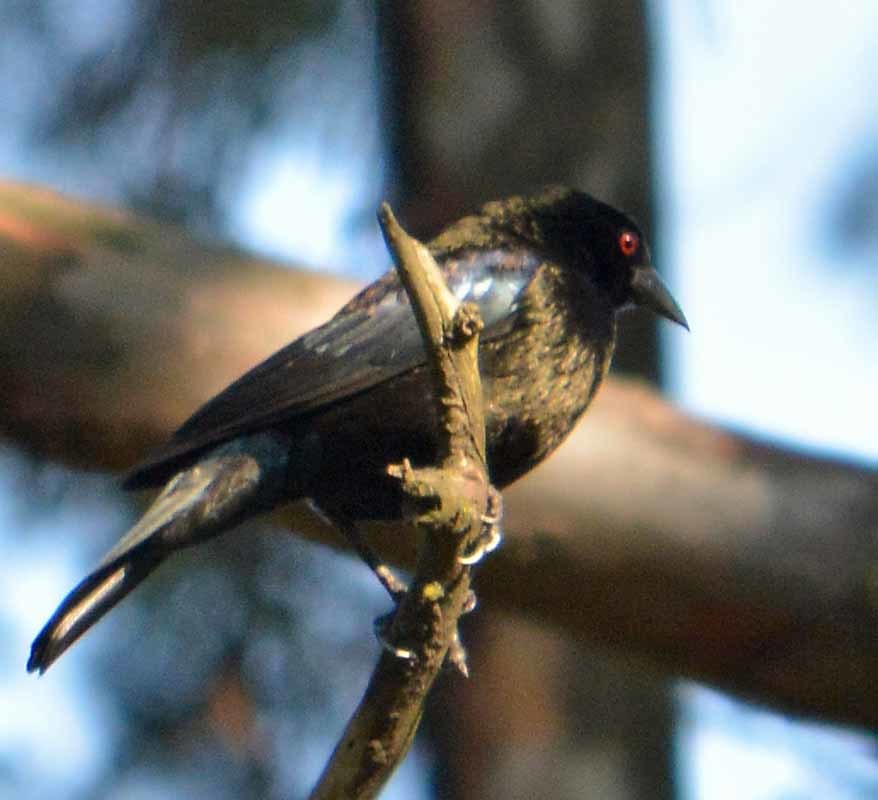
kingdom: Animalia
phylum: Chordata
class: Aves
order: Passeriformes
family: Icteridae
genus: Molothrus
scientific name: Molothrus aeneus
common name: Bronzed cowbird
